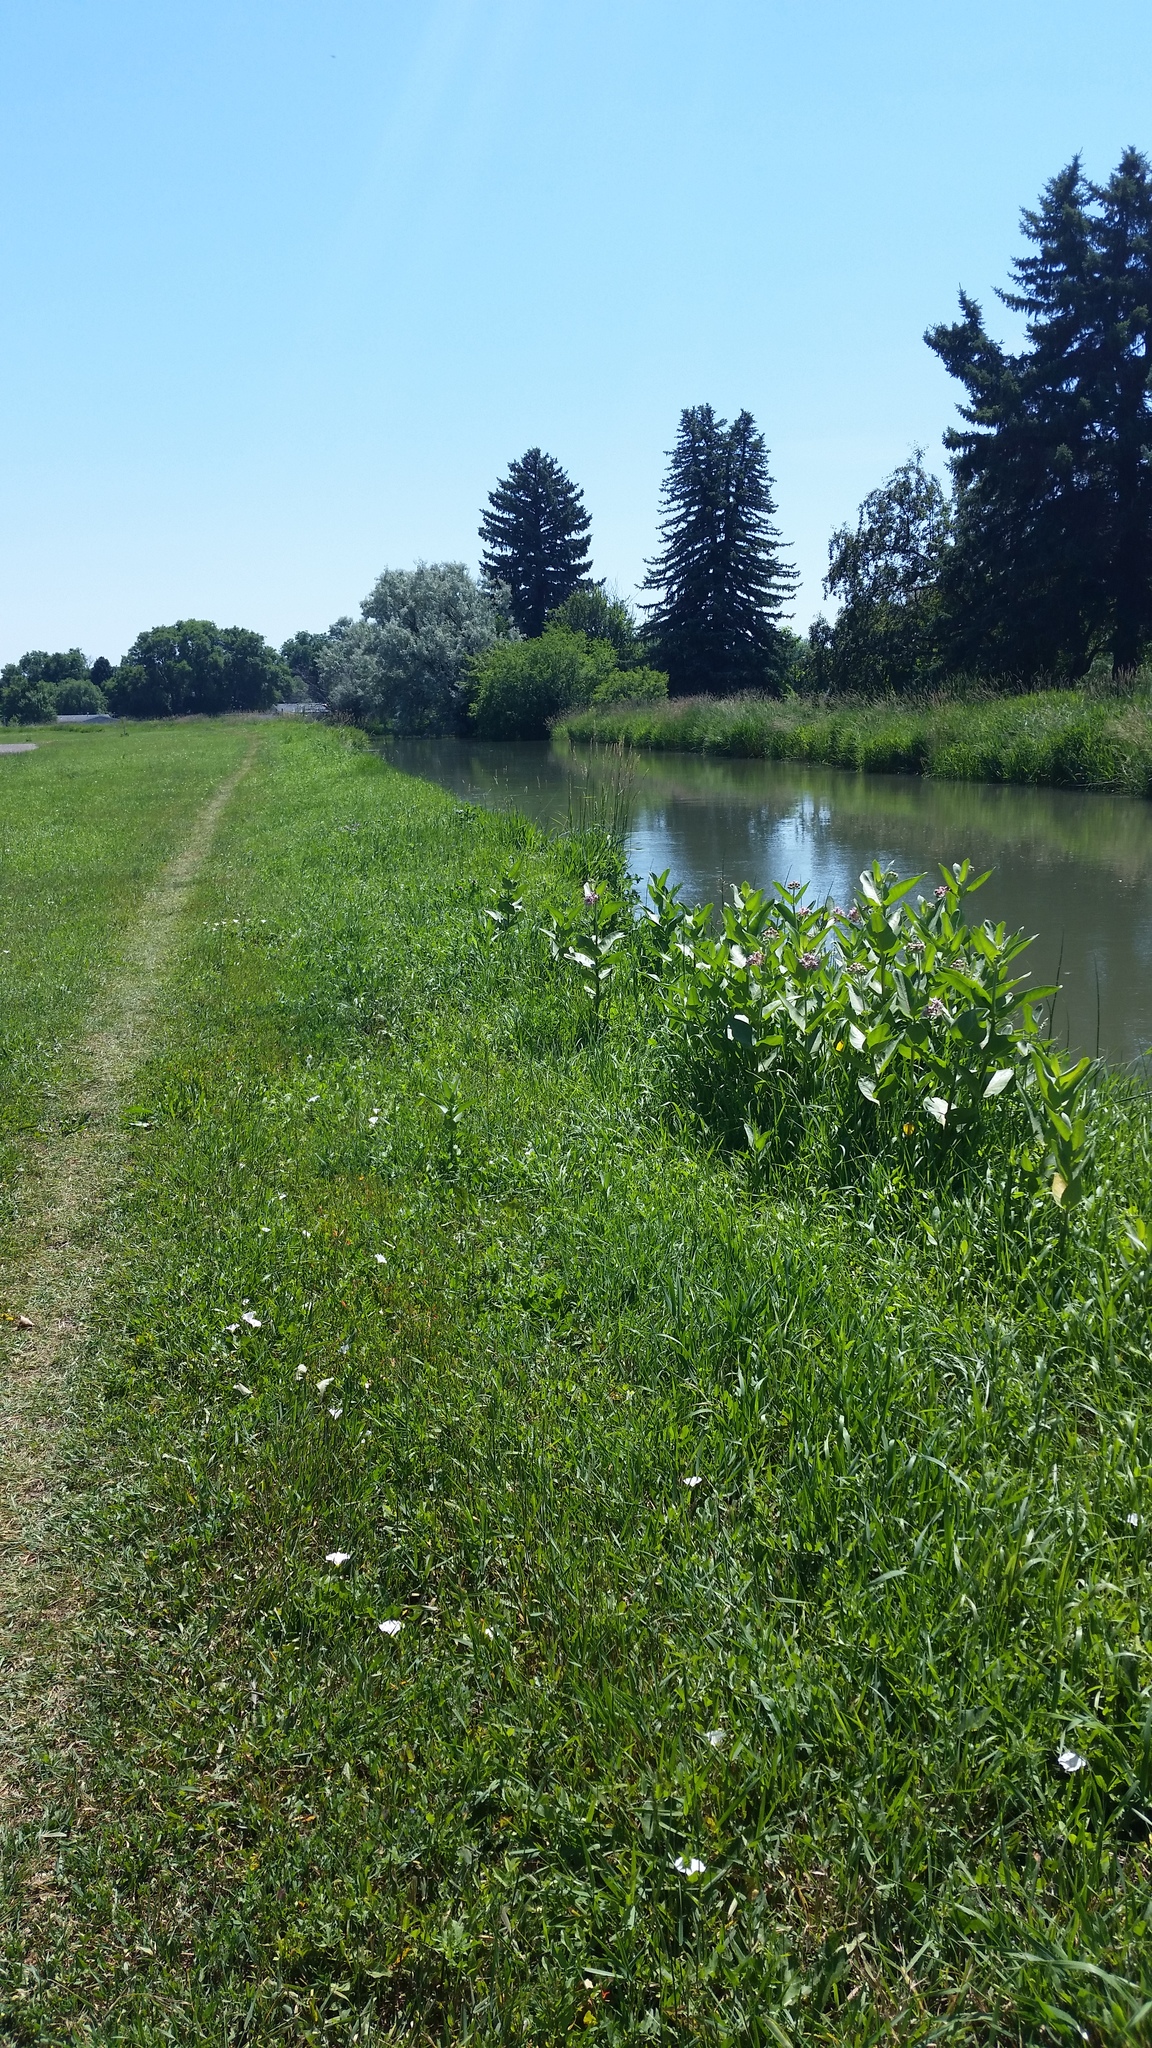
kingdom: Plantae
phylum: Tracheophyta
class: Magnoliopsida
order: Gentianales
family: Apocynaceae
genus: Asclepias
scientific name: Asclepias speciosa
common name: Showy milkweed
